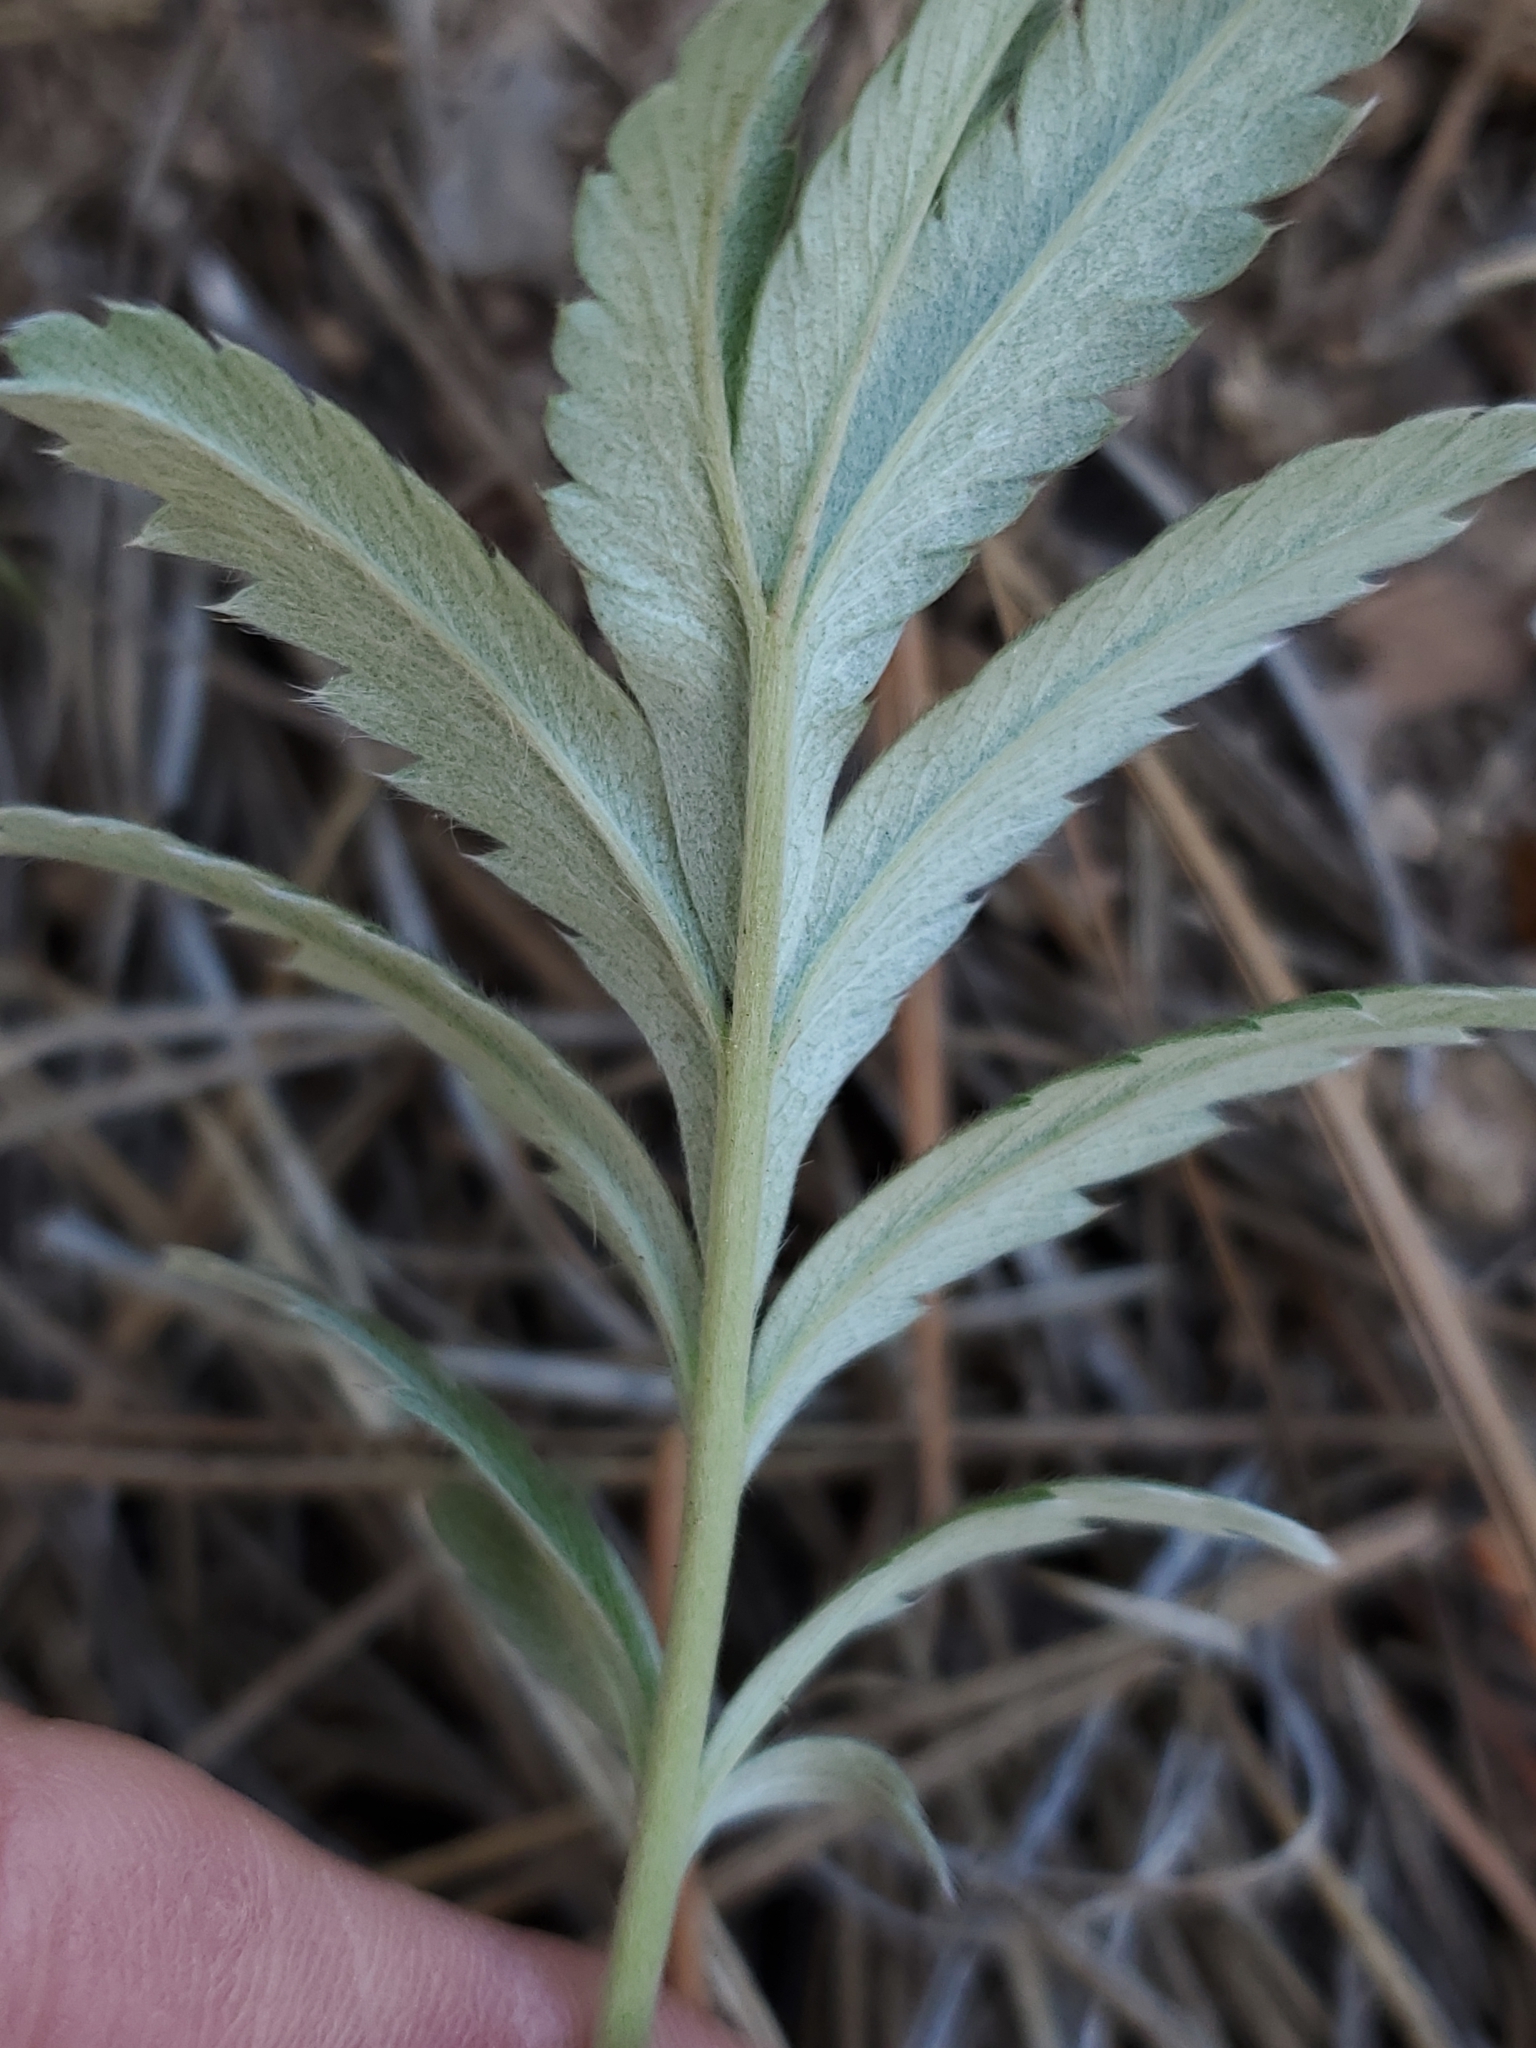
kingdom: Plantae
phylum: Tracheophyta
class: Magnoliopsida
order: Rosales
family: Rosaceae
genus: Potentilla
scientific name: Potentilla hippiana
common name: Woolly cinquefoil
